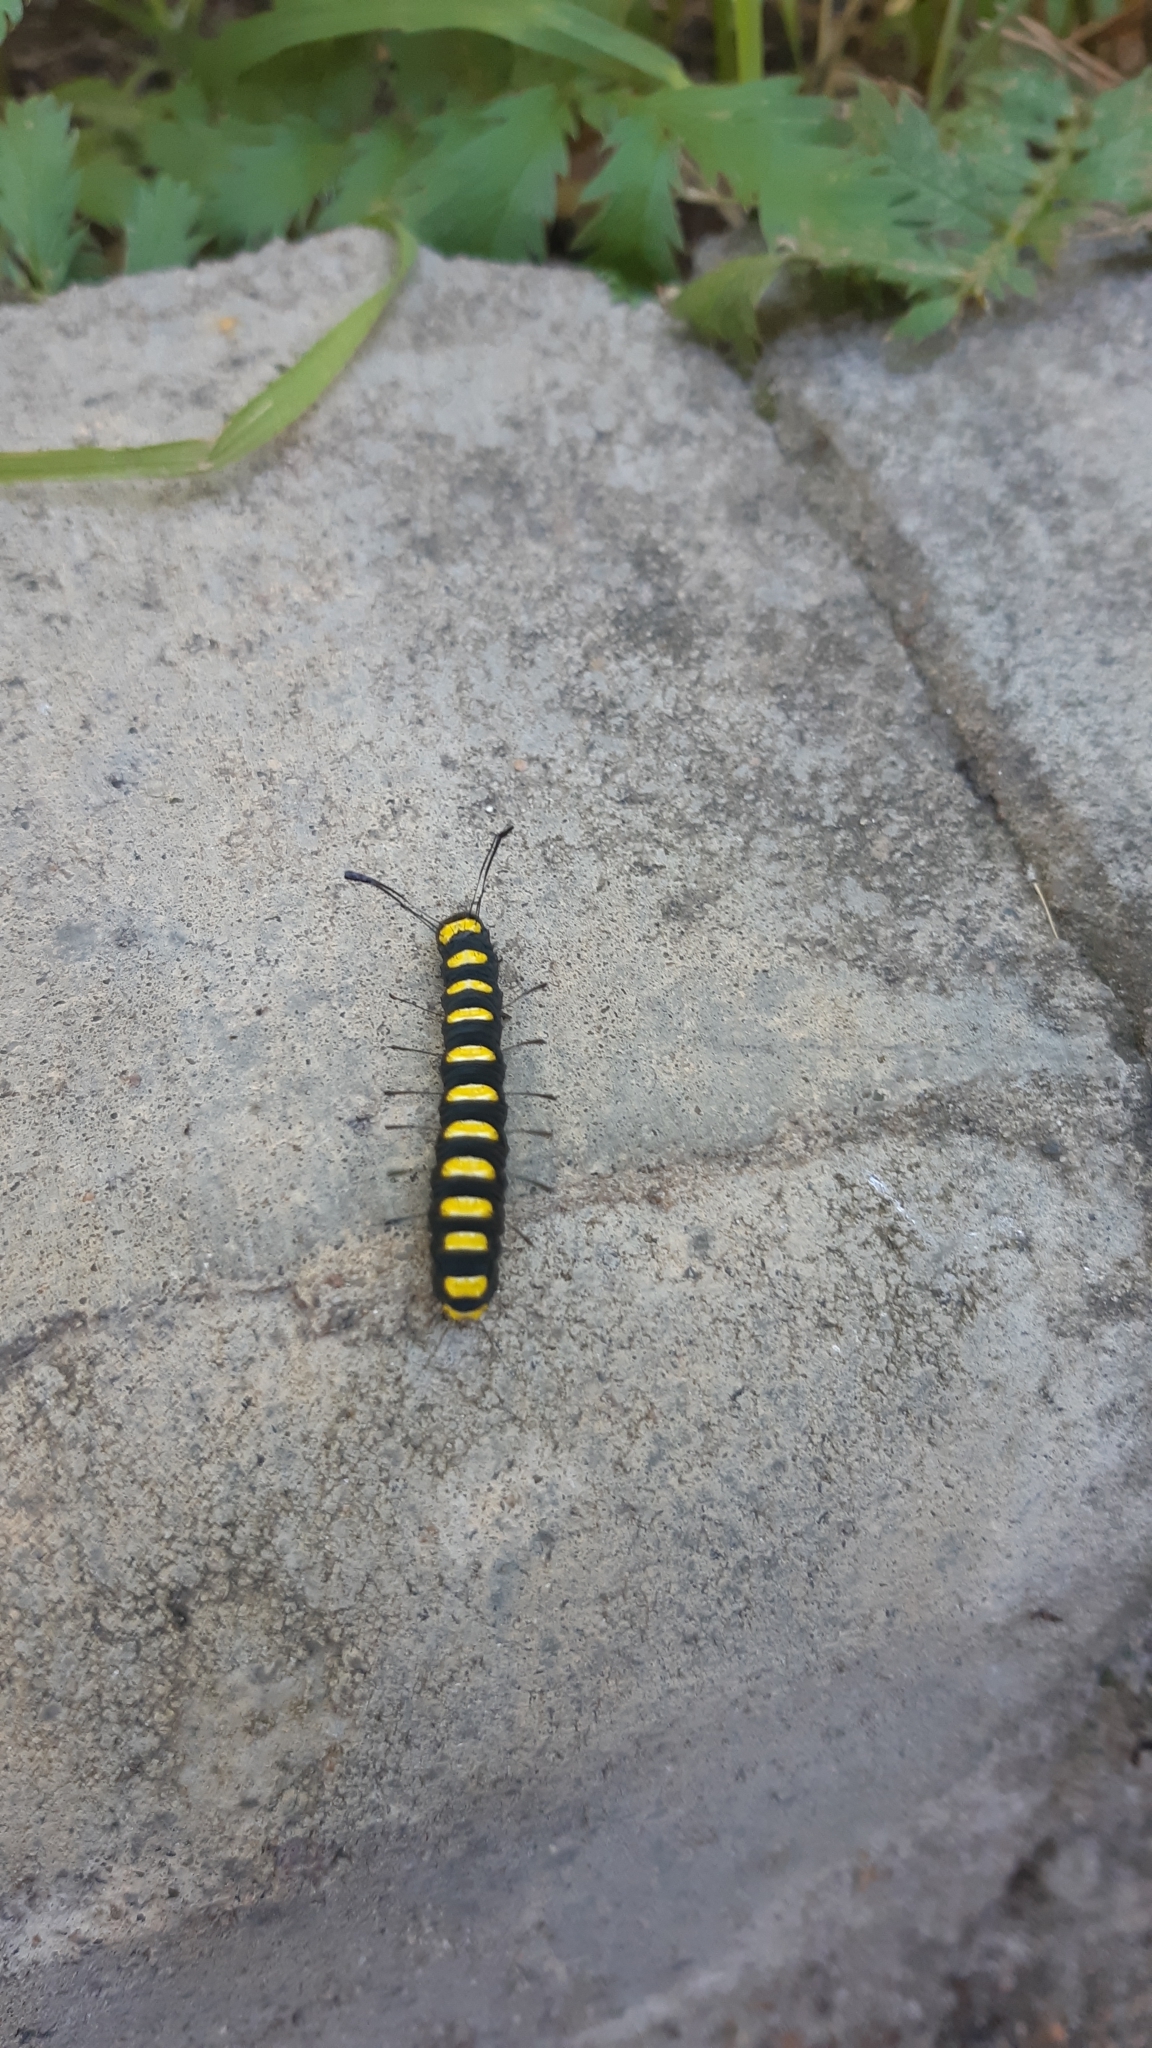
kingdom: Animalia
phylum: Arthropoda
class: Insecta
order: Lepidoptera
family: Noctuidae
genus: Acronicta
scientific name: Acronicta alni
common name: Alder moth
